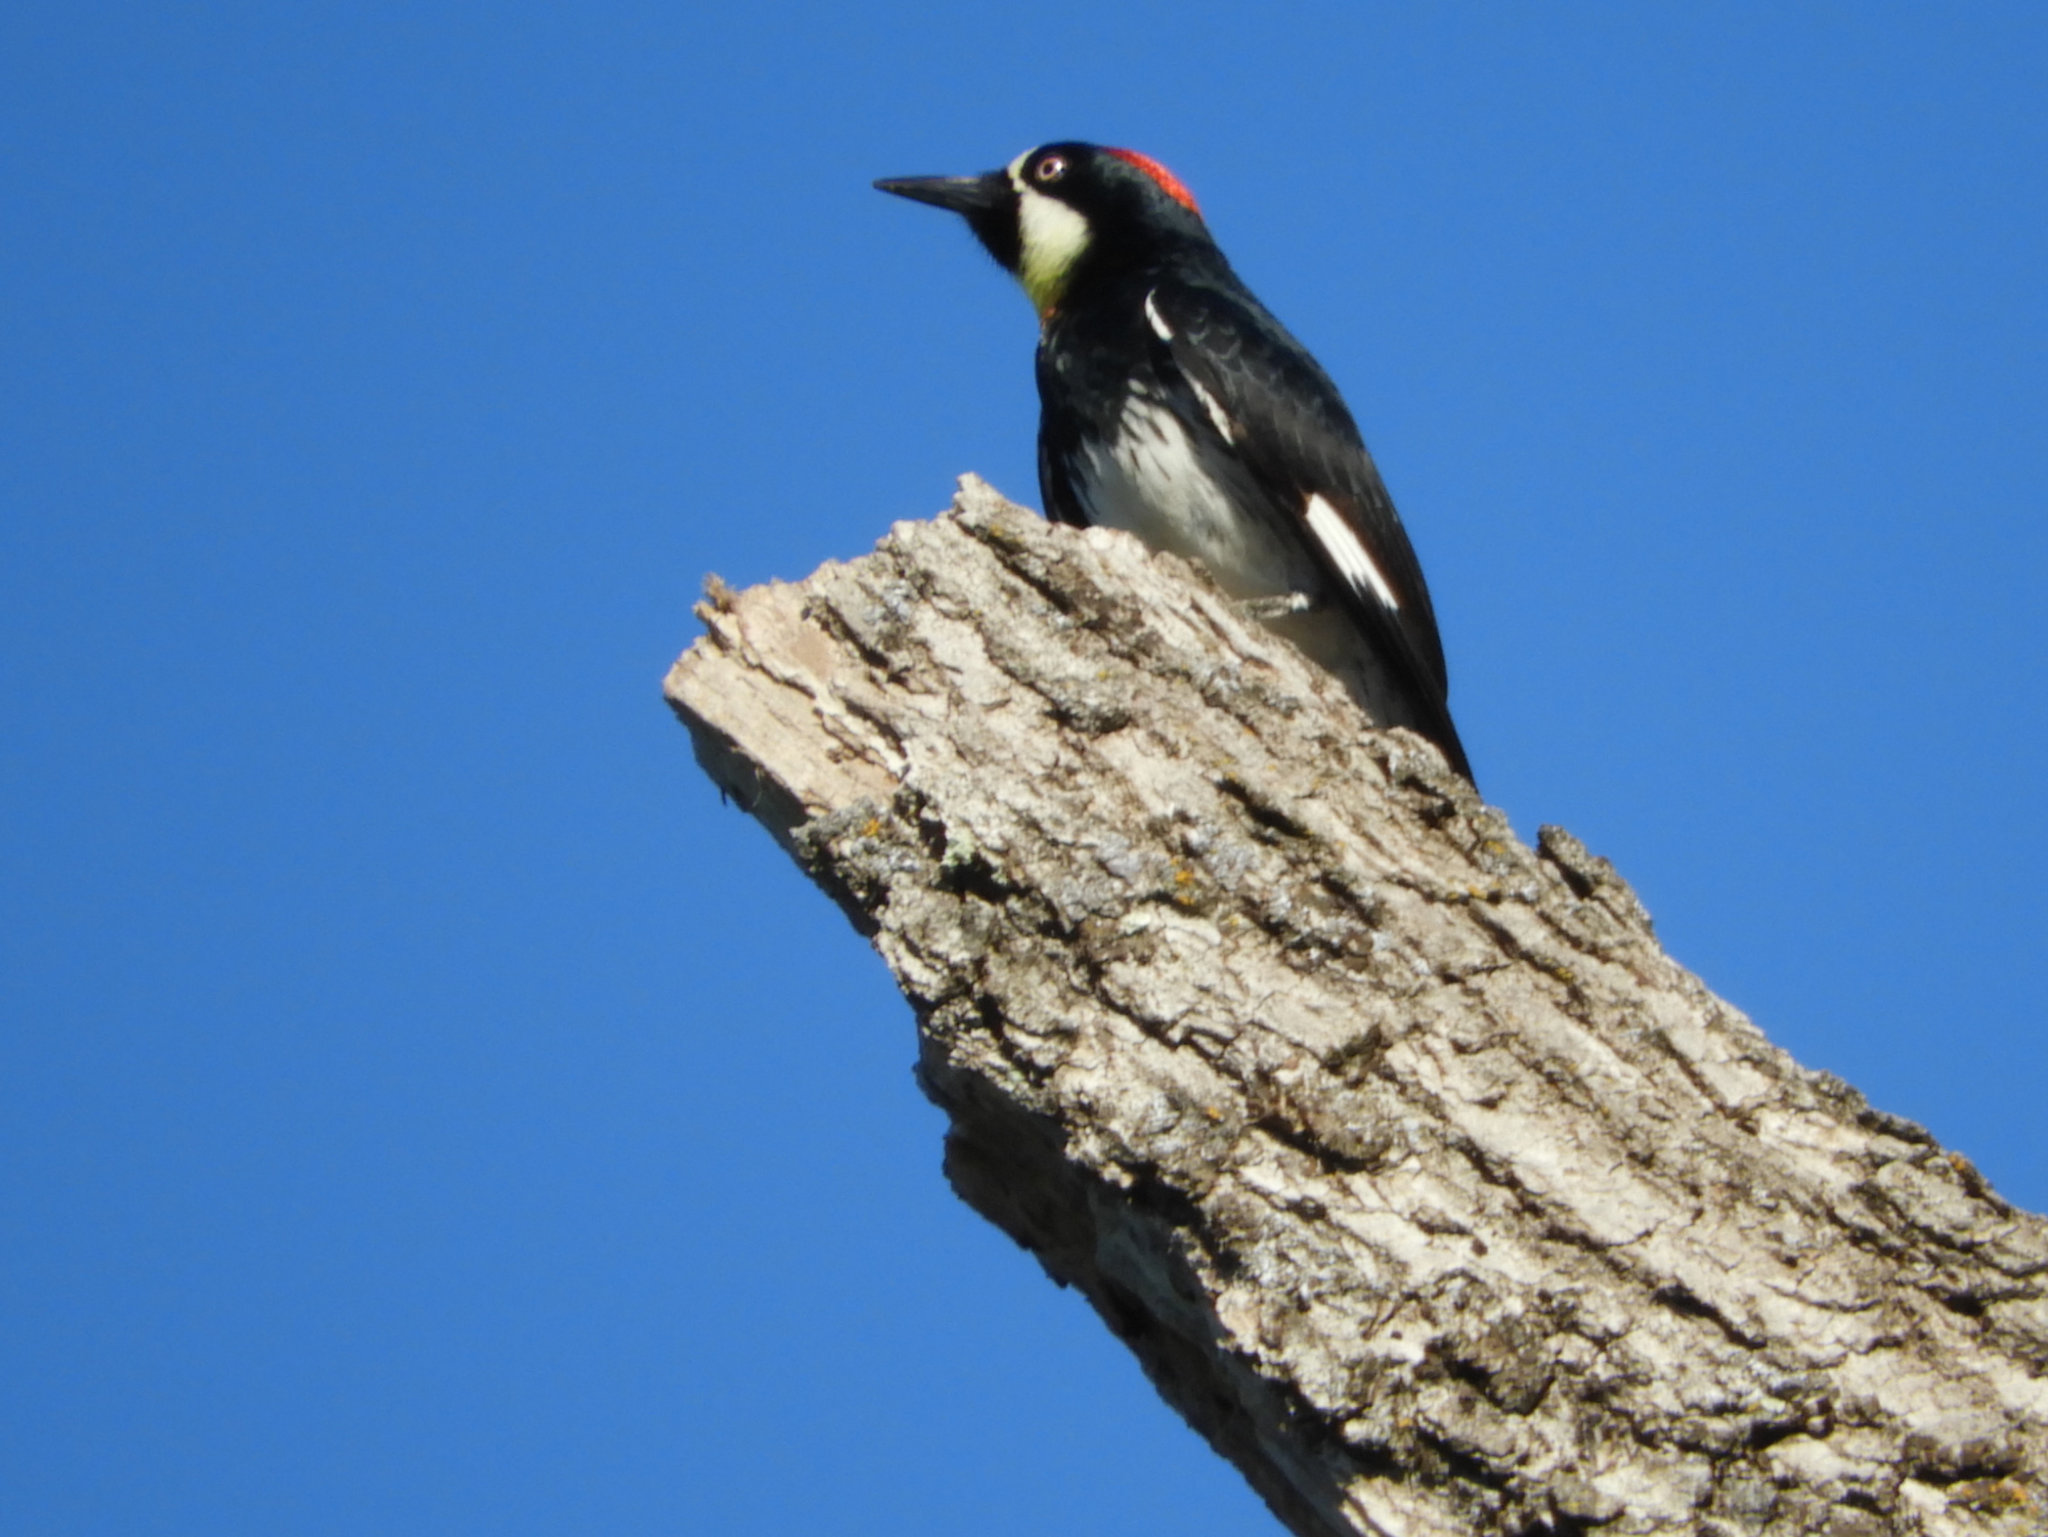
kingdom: Animalia
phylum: Chordata
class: Aves
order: Piciformes
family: Picidae
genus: Melanerpes
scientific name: Melanerpes formicivorus
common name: Acorn woodpecker
